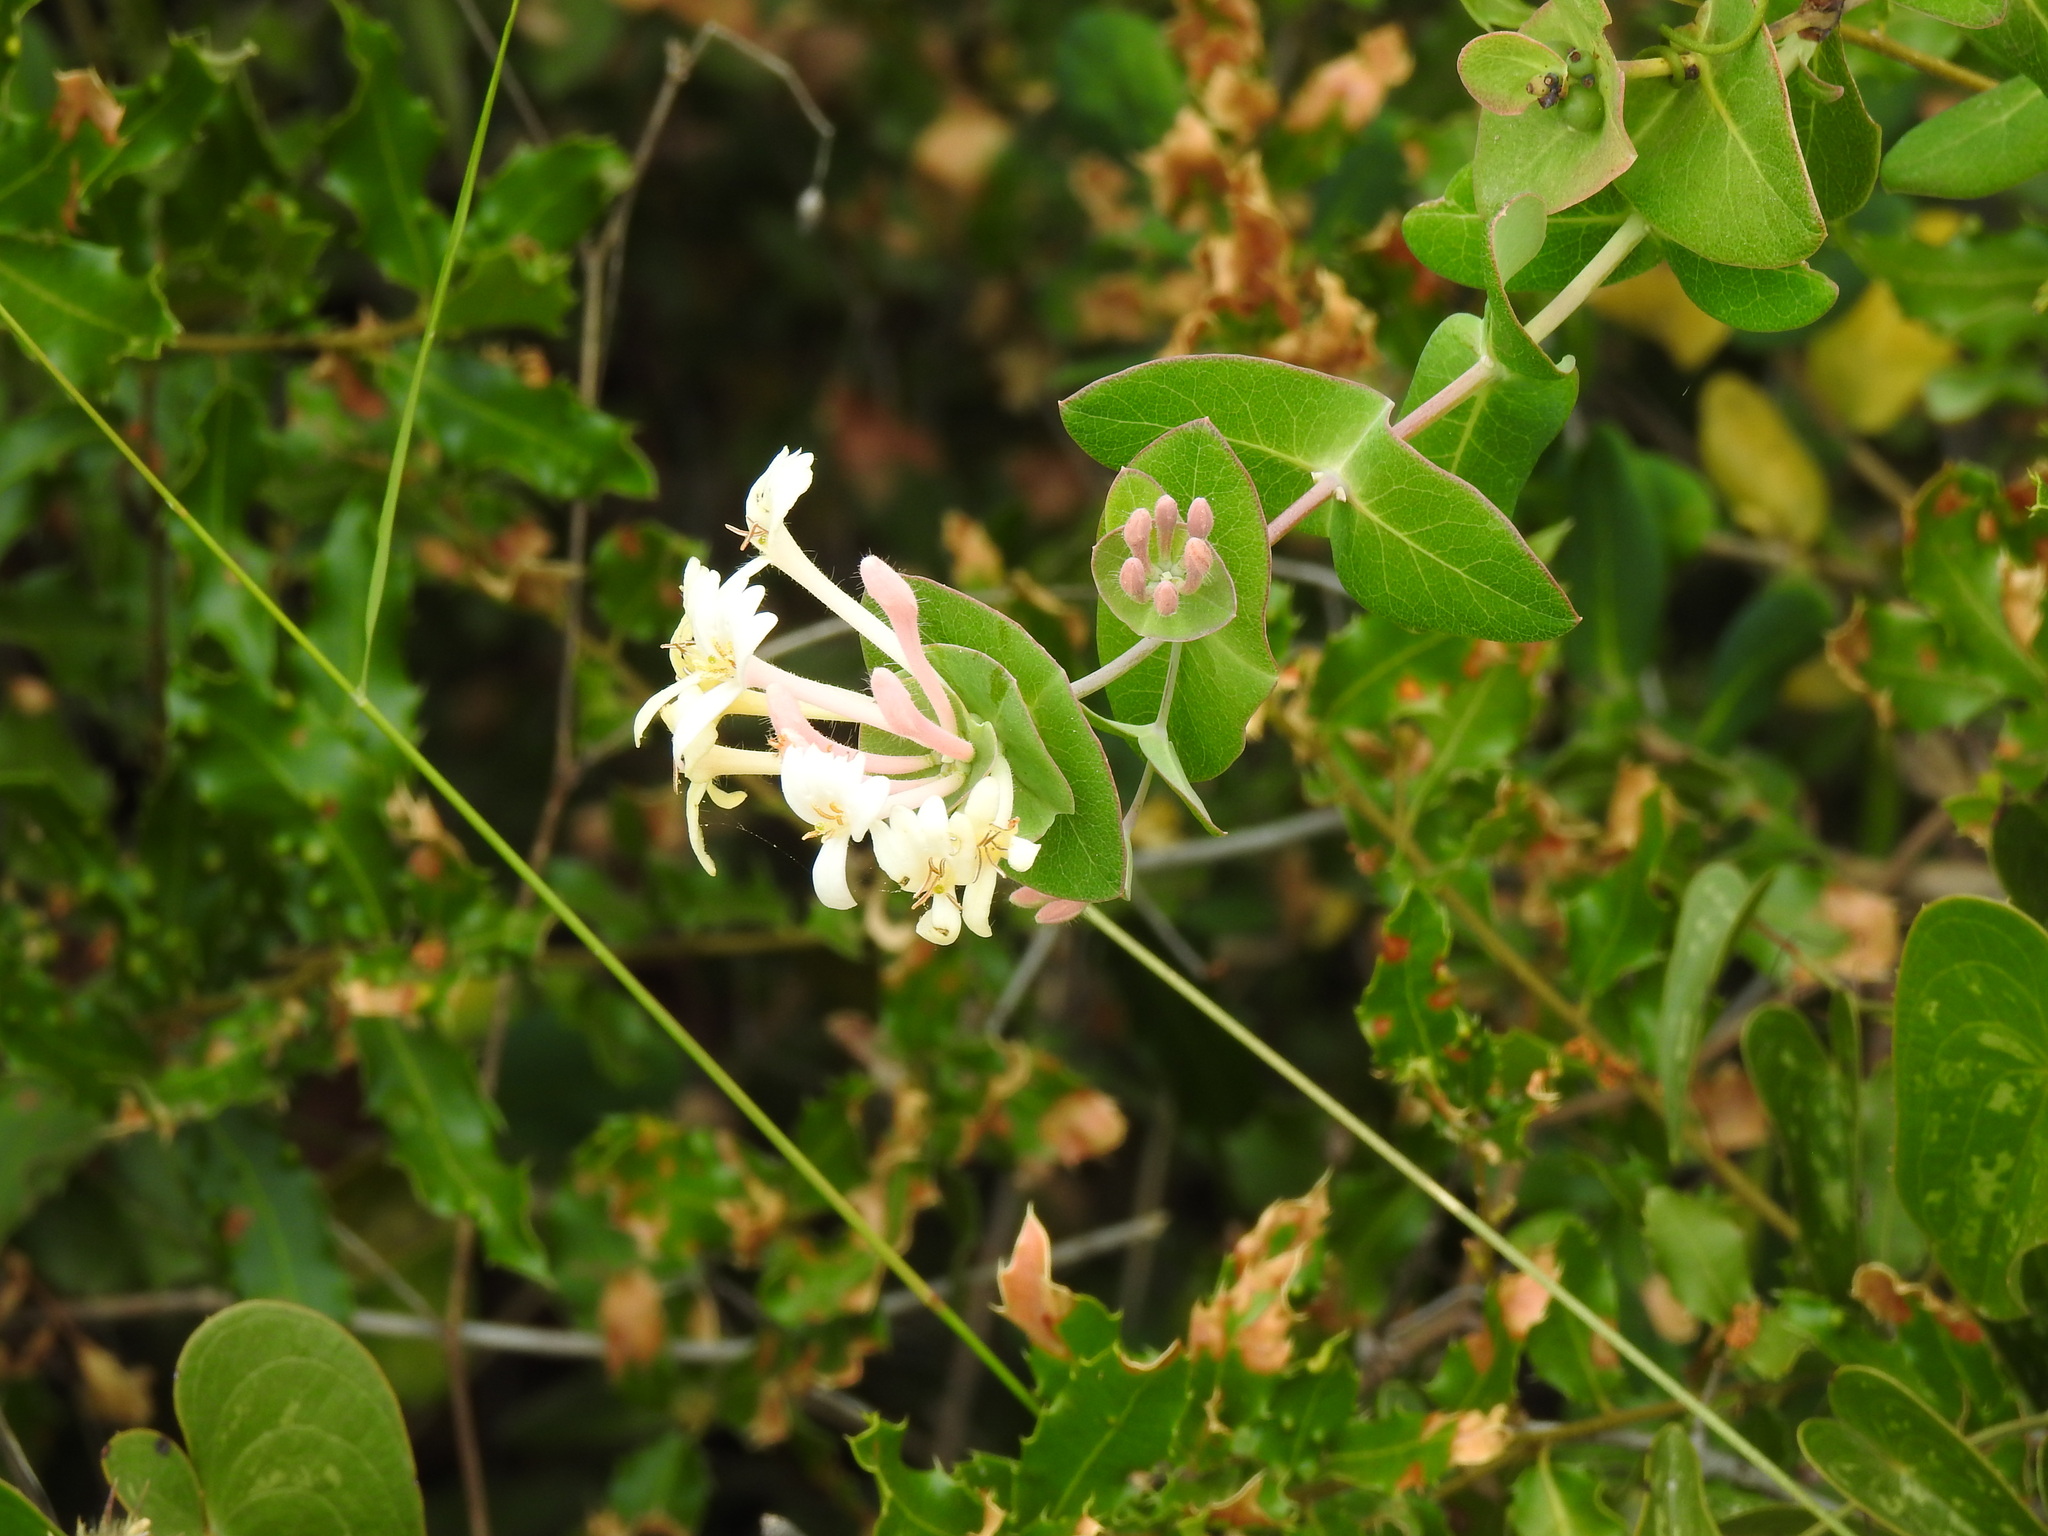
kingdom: Plantae
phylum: Tracheophyta
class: Magnoliopsida
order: Dipsacales
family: Caprifoliaceae
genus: Lonicera
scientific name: Lonicera implexa
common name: Minorca honeysuckle
